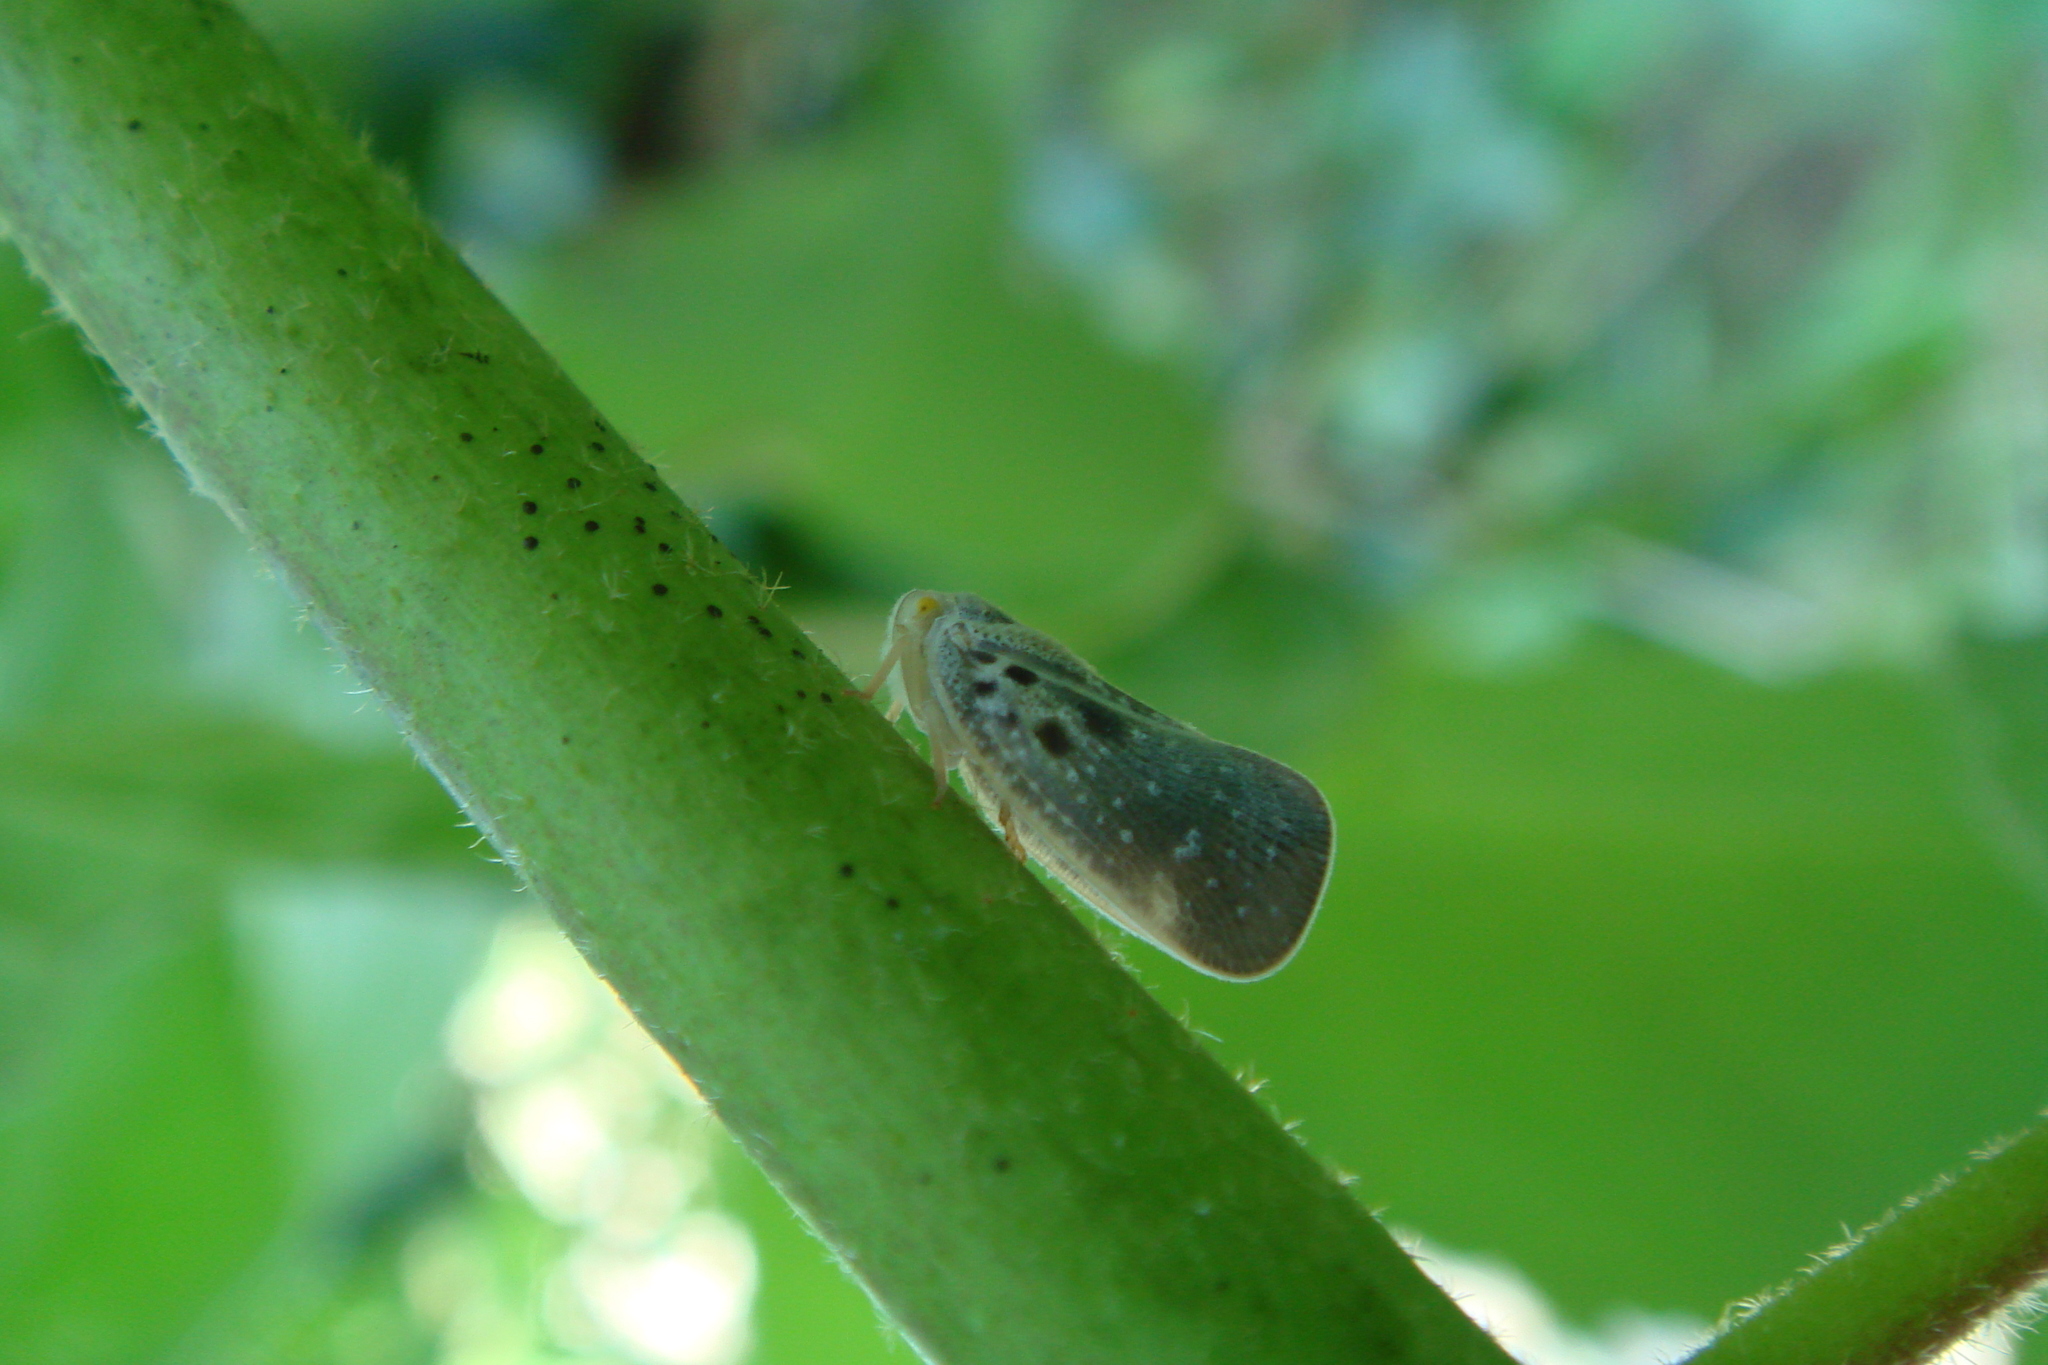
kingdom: Animalia
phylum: Arthropoda
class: Insecta
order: Hemiptera
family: Flatidae
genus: Metcalfa
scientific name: Metcalfa pruinosa
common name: Citrus flatid planthopper
